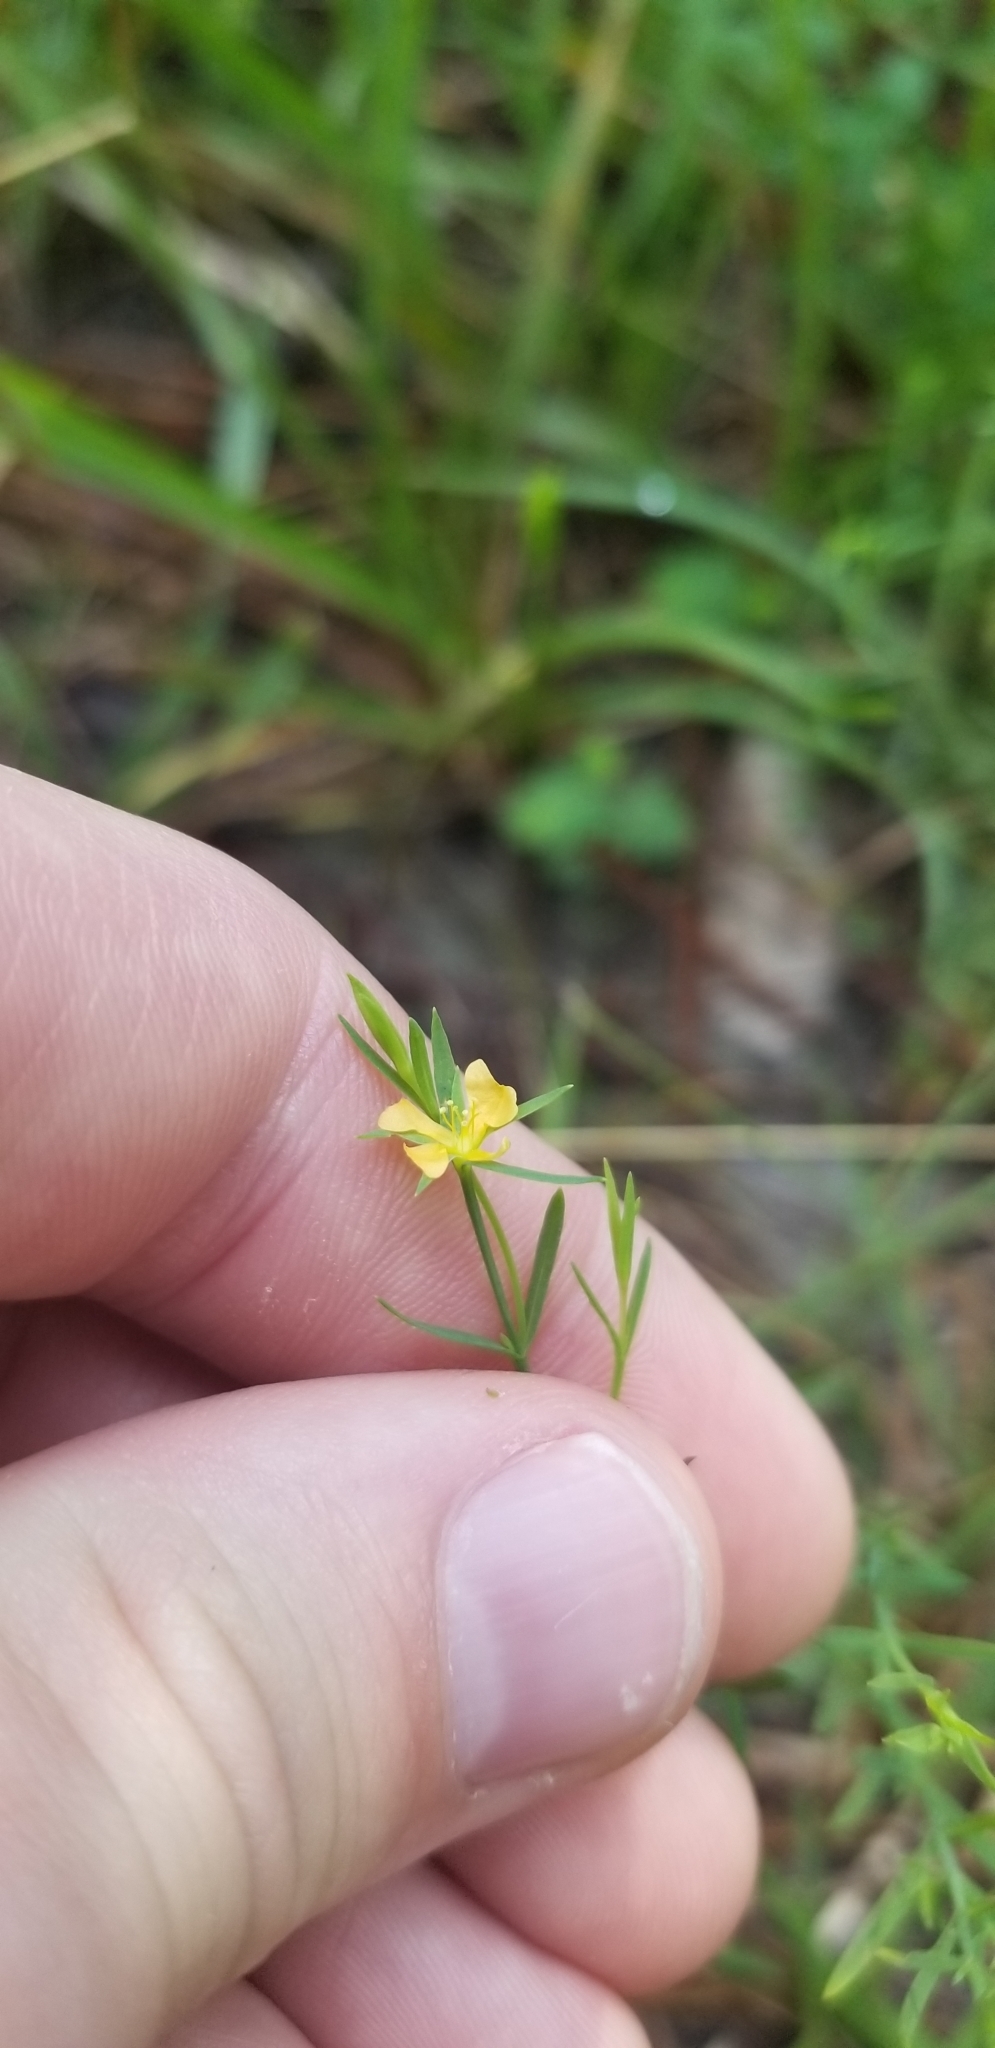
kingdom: Plantae
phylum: Tracheophyta
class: Magnoliopsida
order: Malpighiales
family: Hypericaceae
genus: Hypericum
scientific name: Hypericum drummondii
